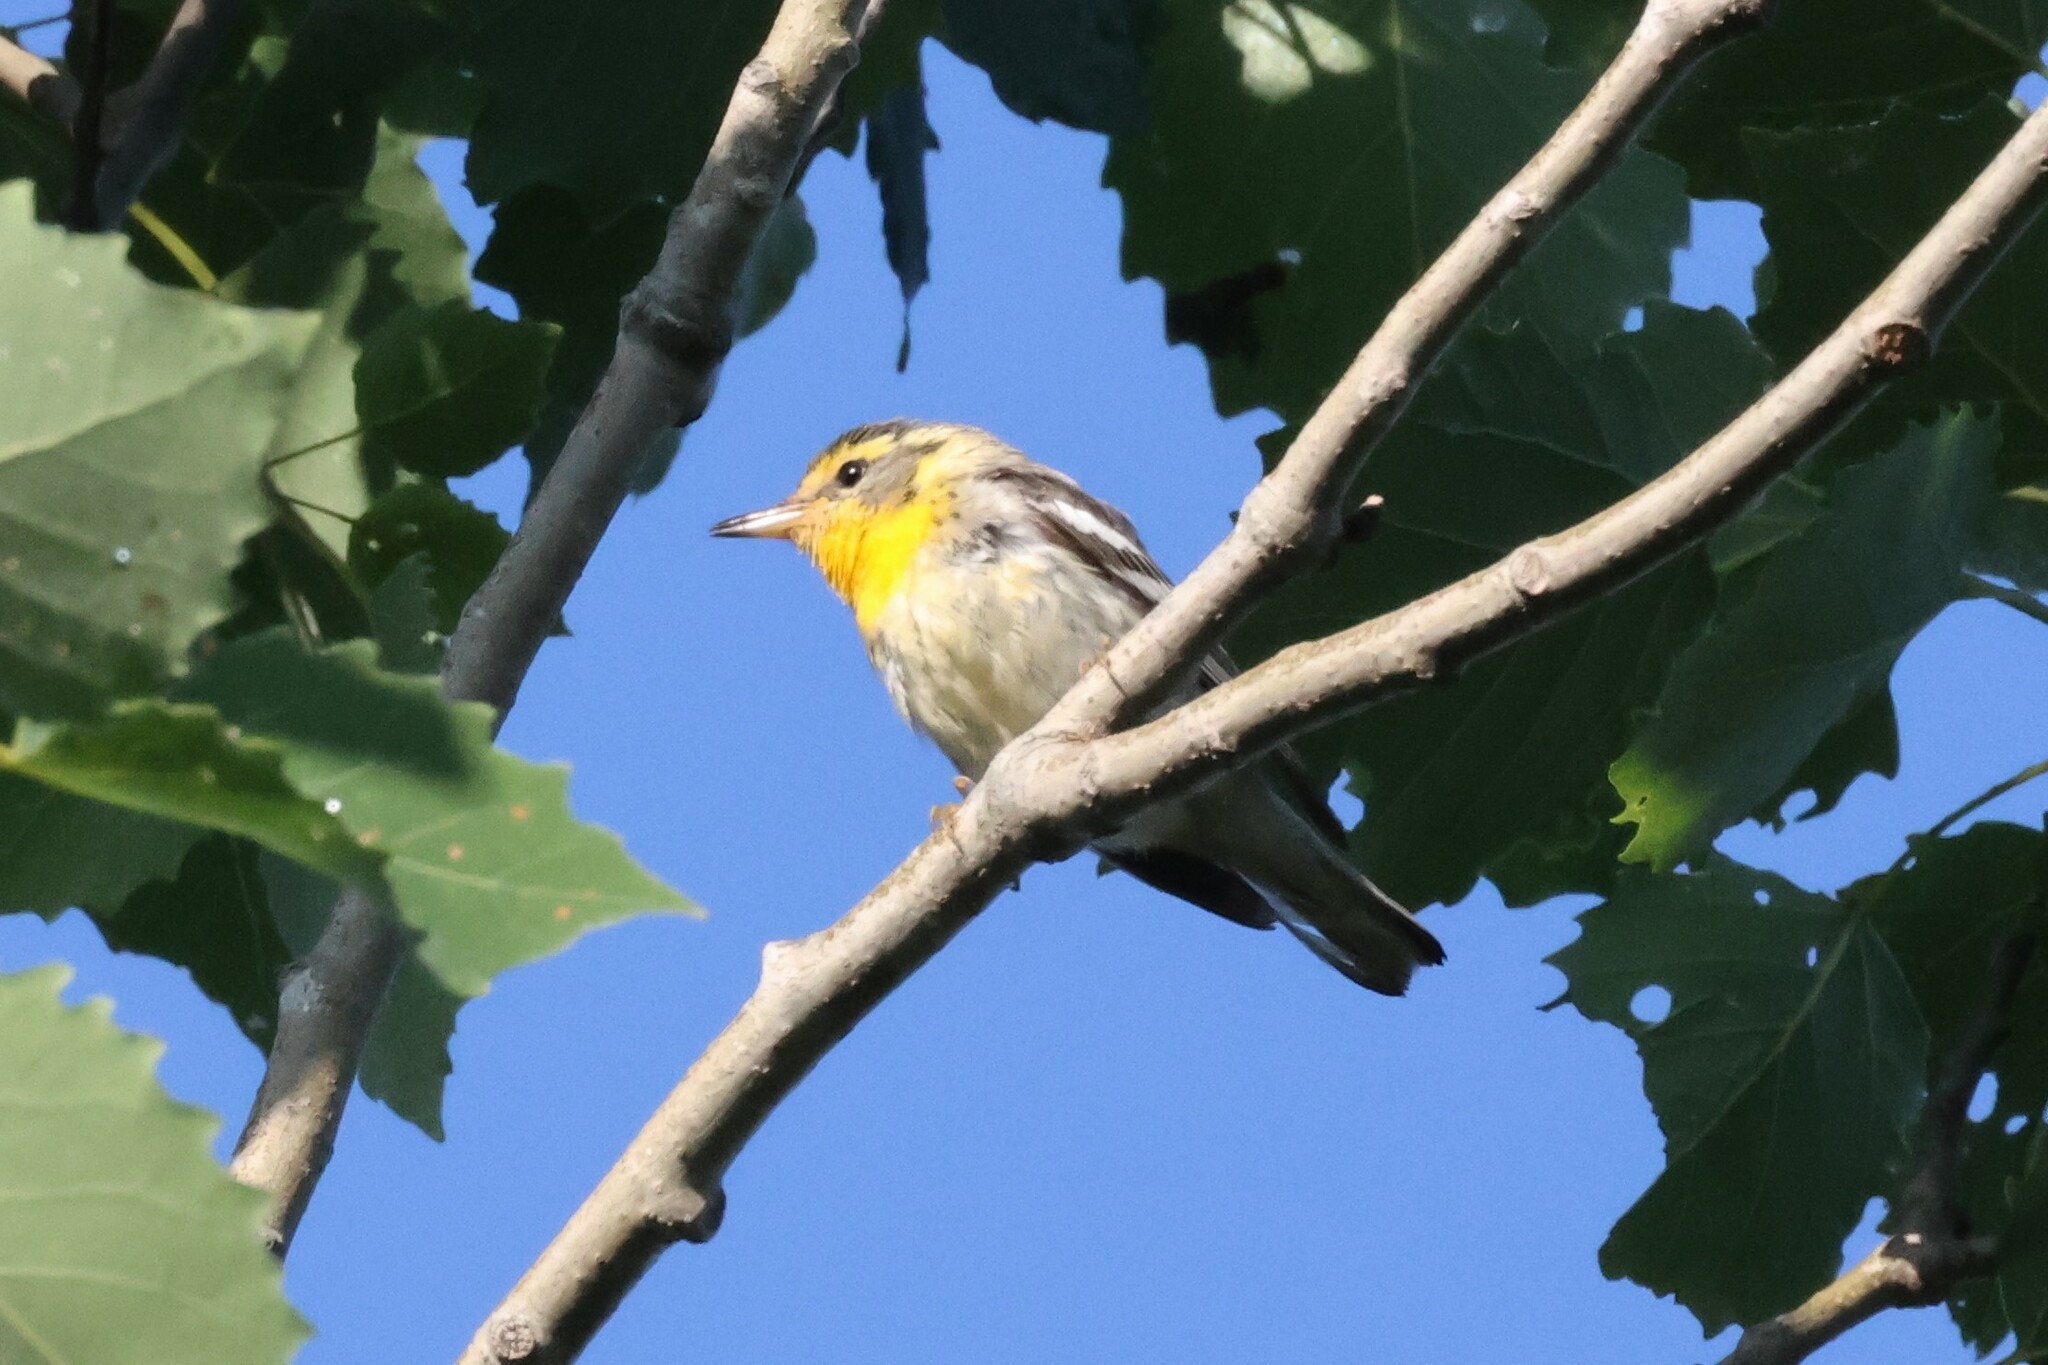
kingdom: Animalia
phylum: Chordata
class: Aves
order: Passeriformes
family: Parulidae
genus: Setophaga
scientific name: Setophaga fusca
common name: Blackburnian warbler
